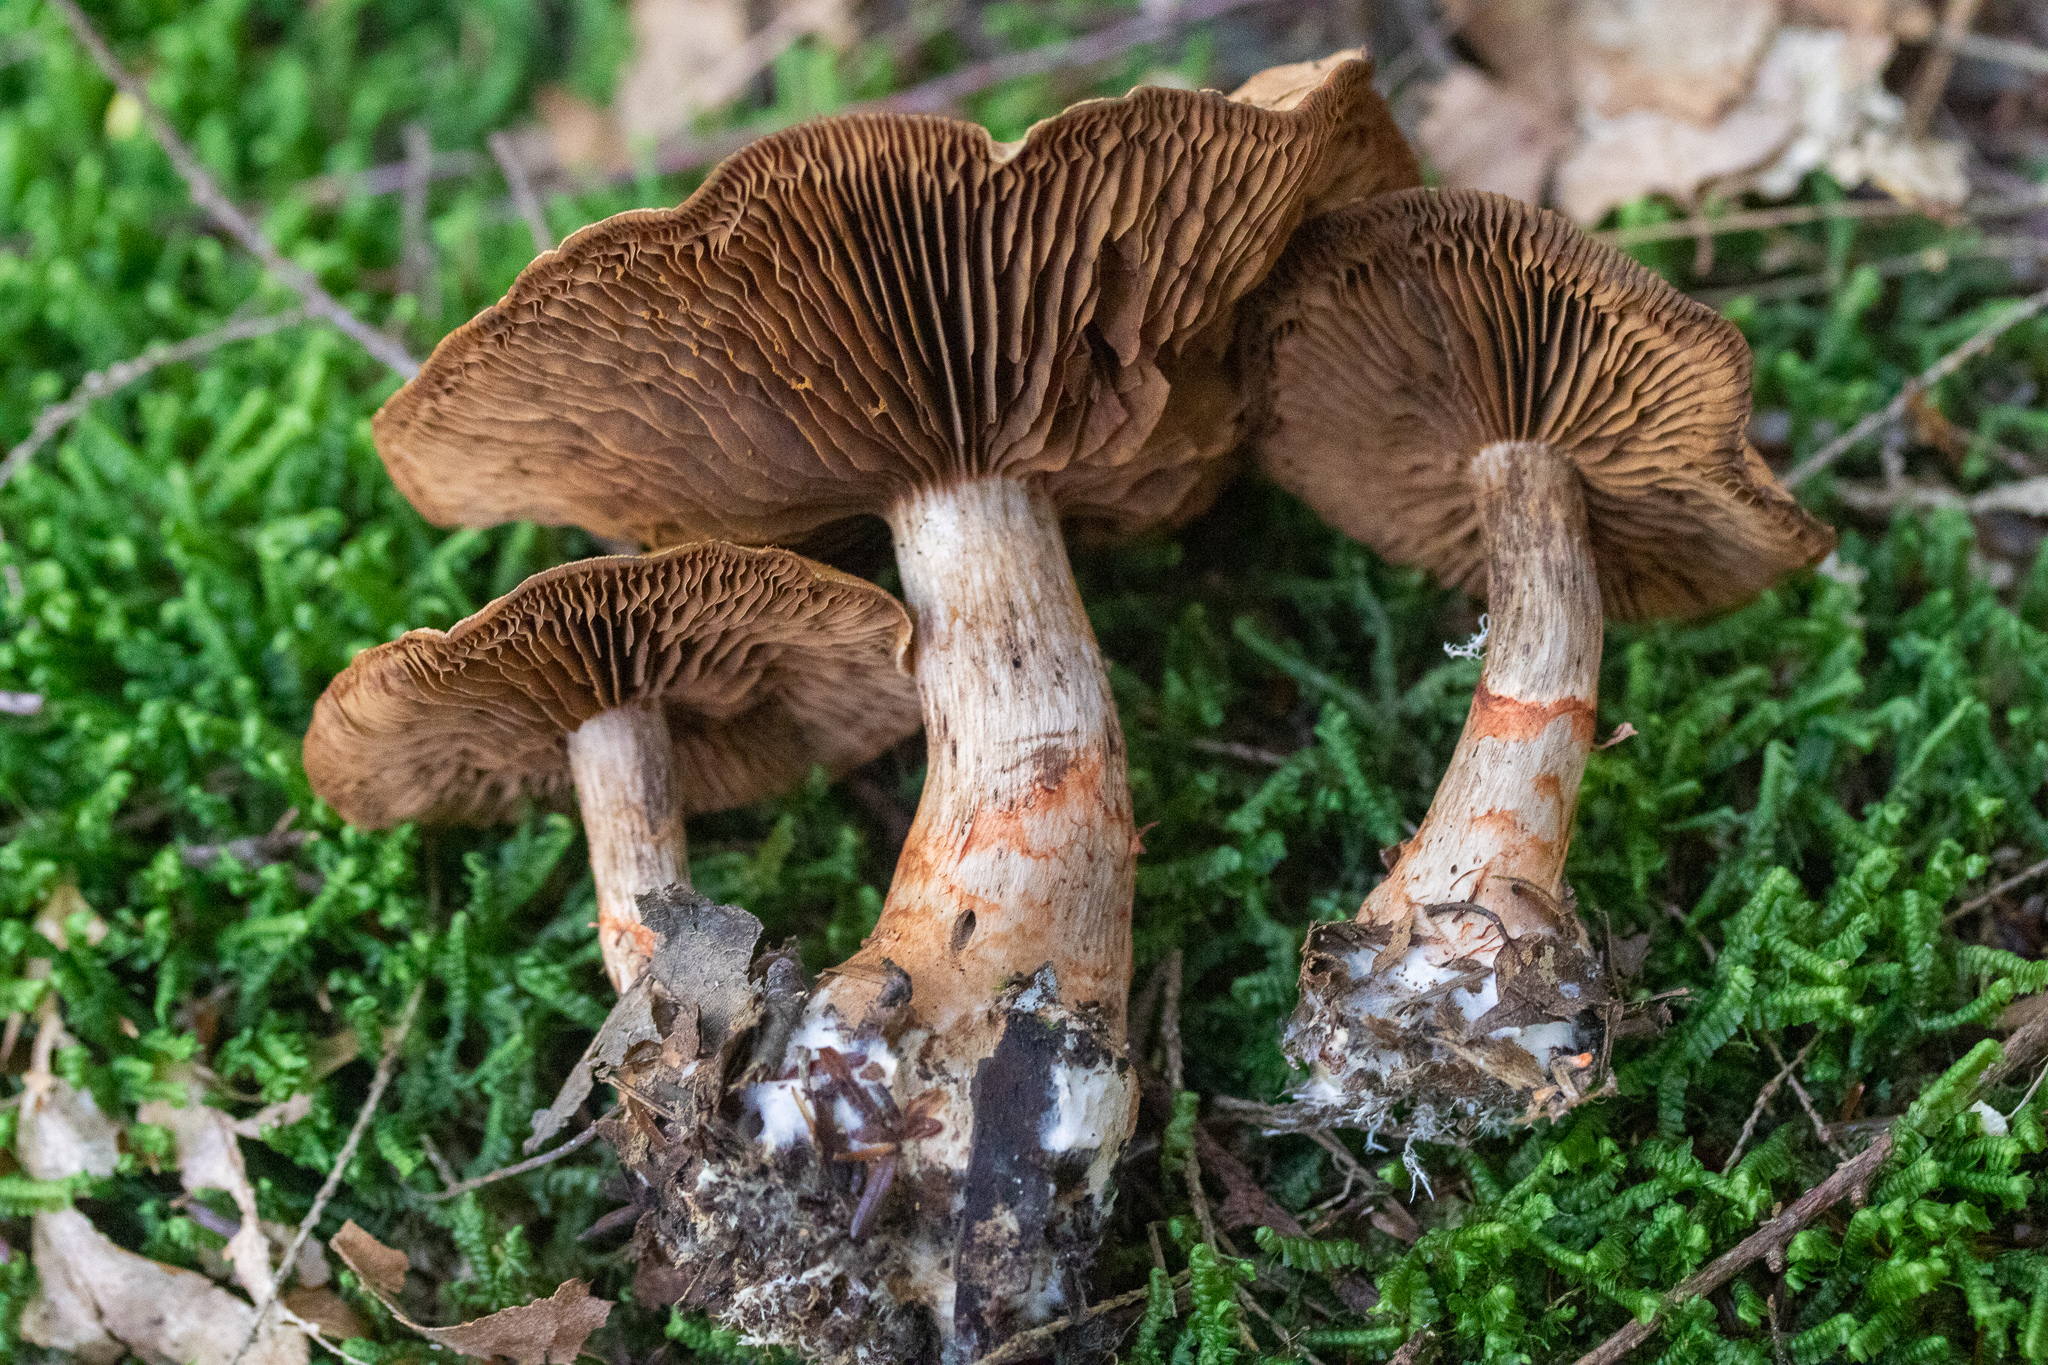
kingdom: Fungi
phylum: Basidiomycota
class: Agaricomycetes
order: Agaricales
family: Cortinariaceae
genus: Cortinarius
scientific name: Cortinarius armillatus
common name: Red banded webcap
